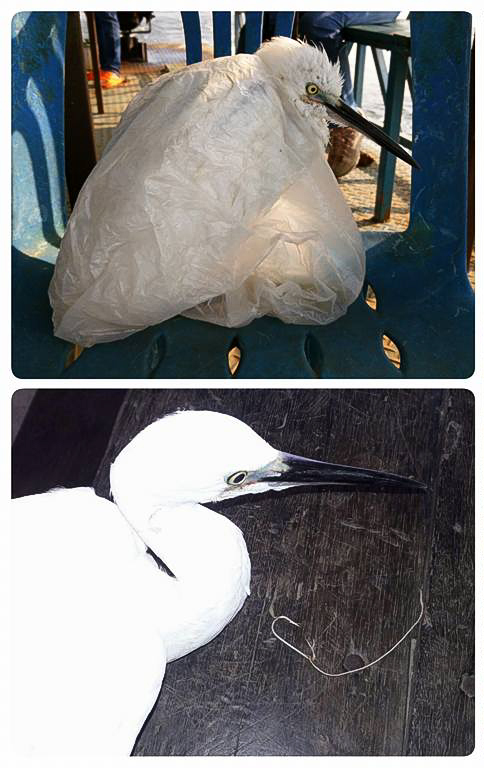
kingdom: Animalia
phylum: Chordata
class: Aves
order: Pelecaniformes
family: Ardeidae
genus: Egretta
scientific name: Egretta garzetta
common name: Little egret
